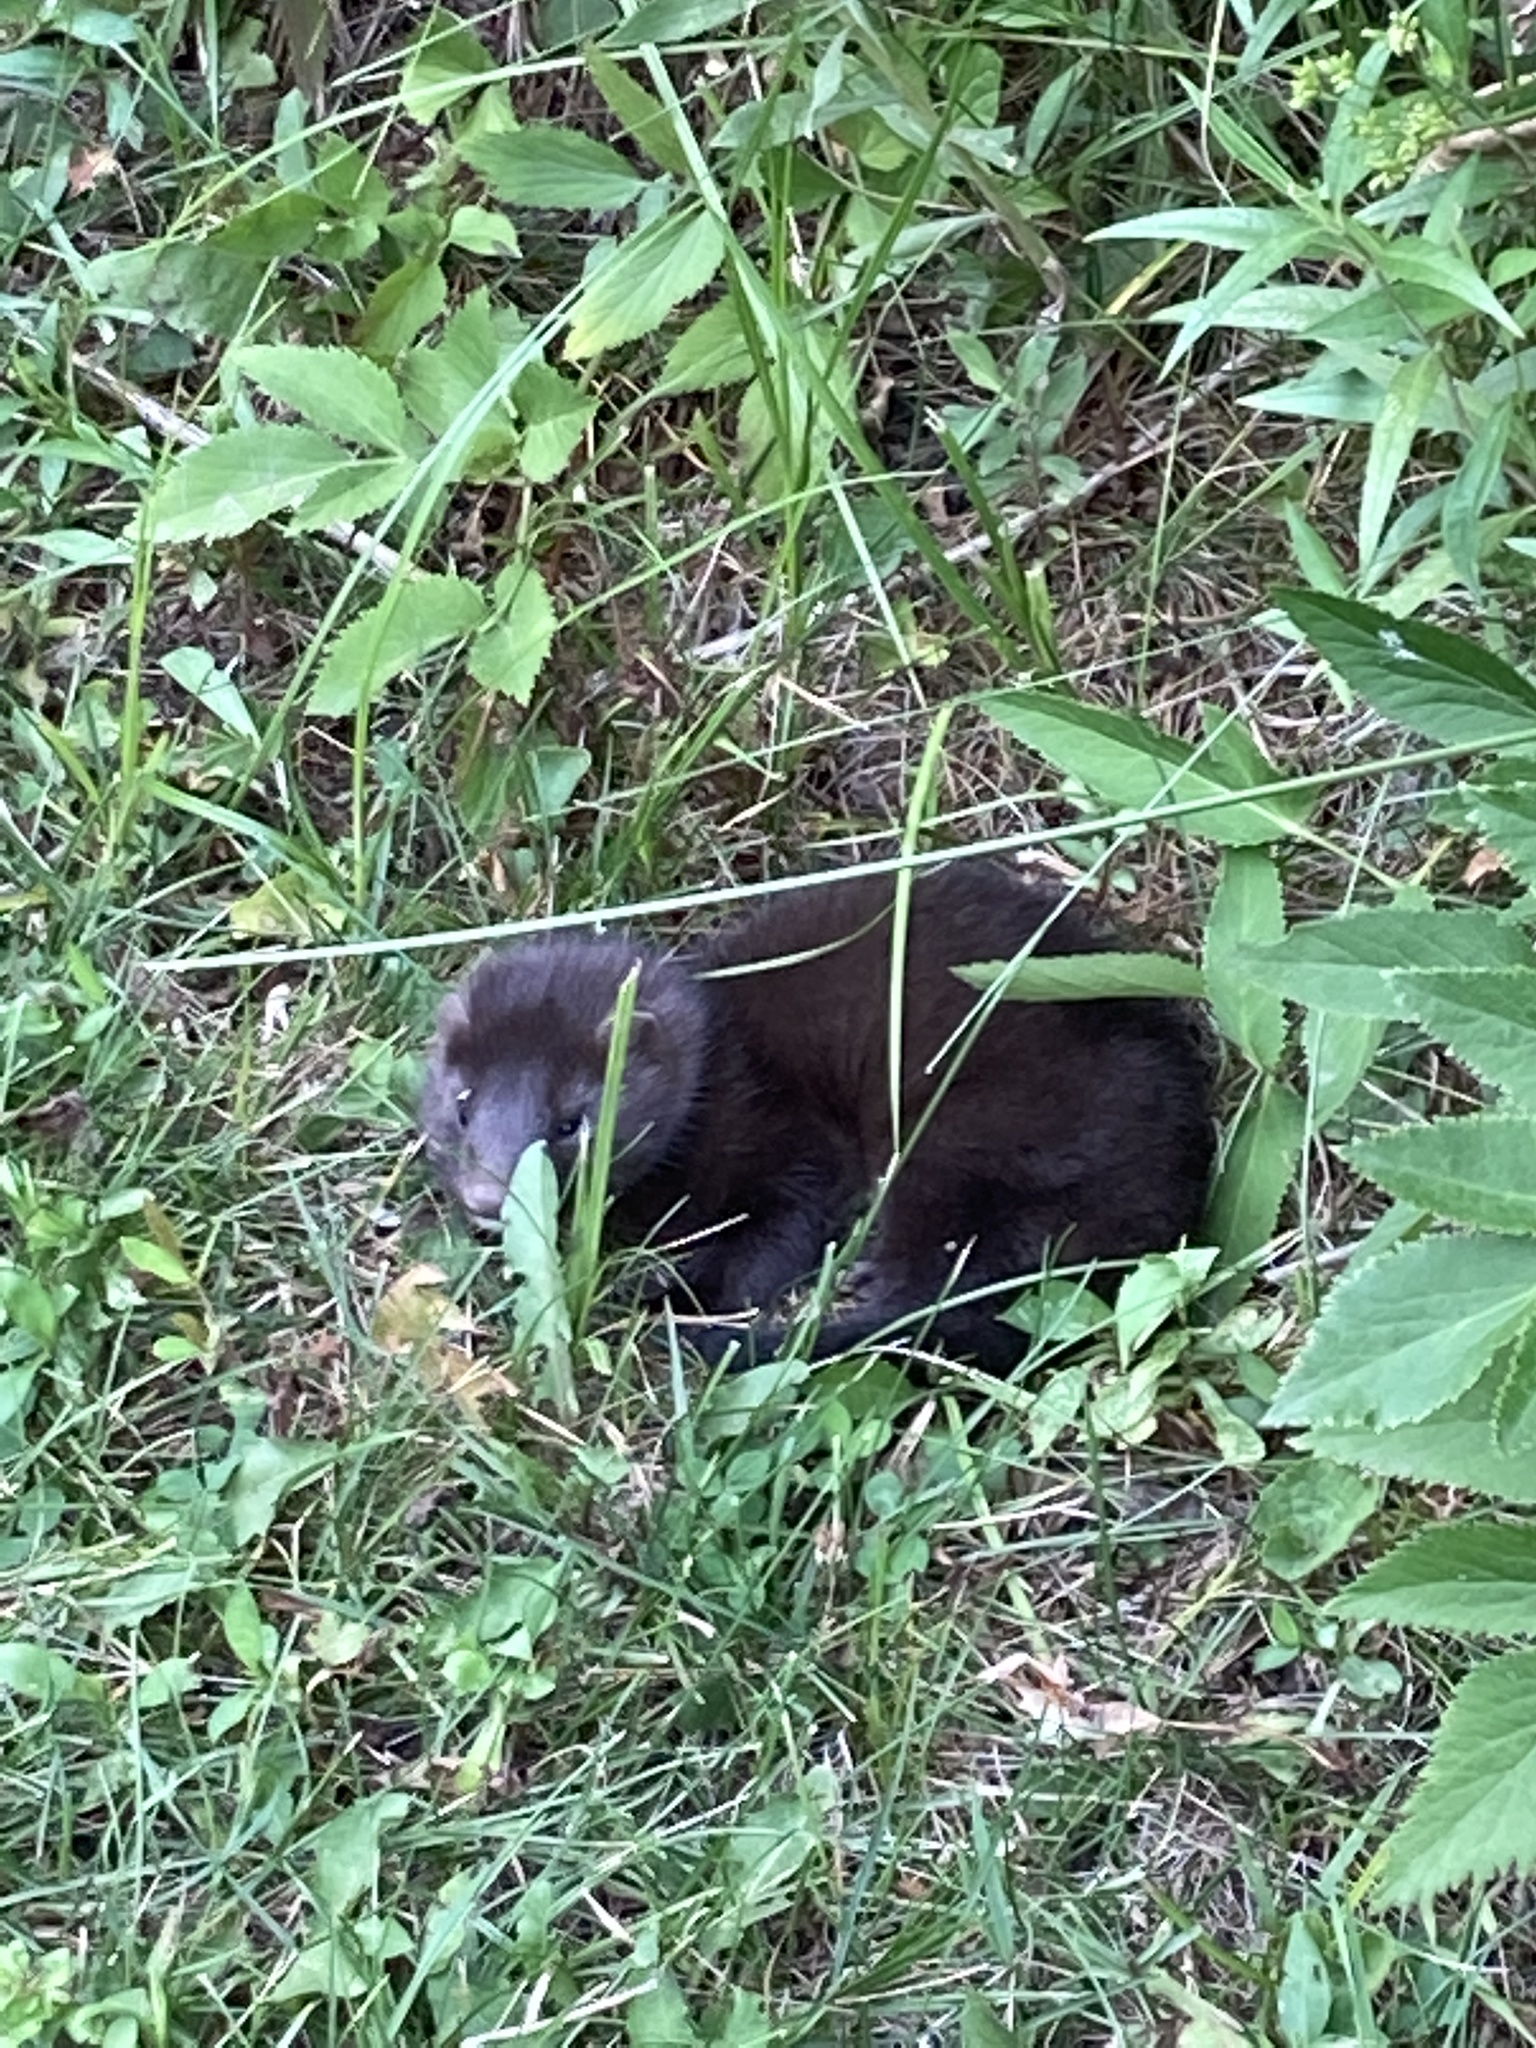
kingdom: Animalia
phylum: Chordata
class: Mammalia
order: Carnivora
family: Mustelidae
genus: Mustela
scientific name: Mustela
